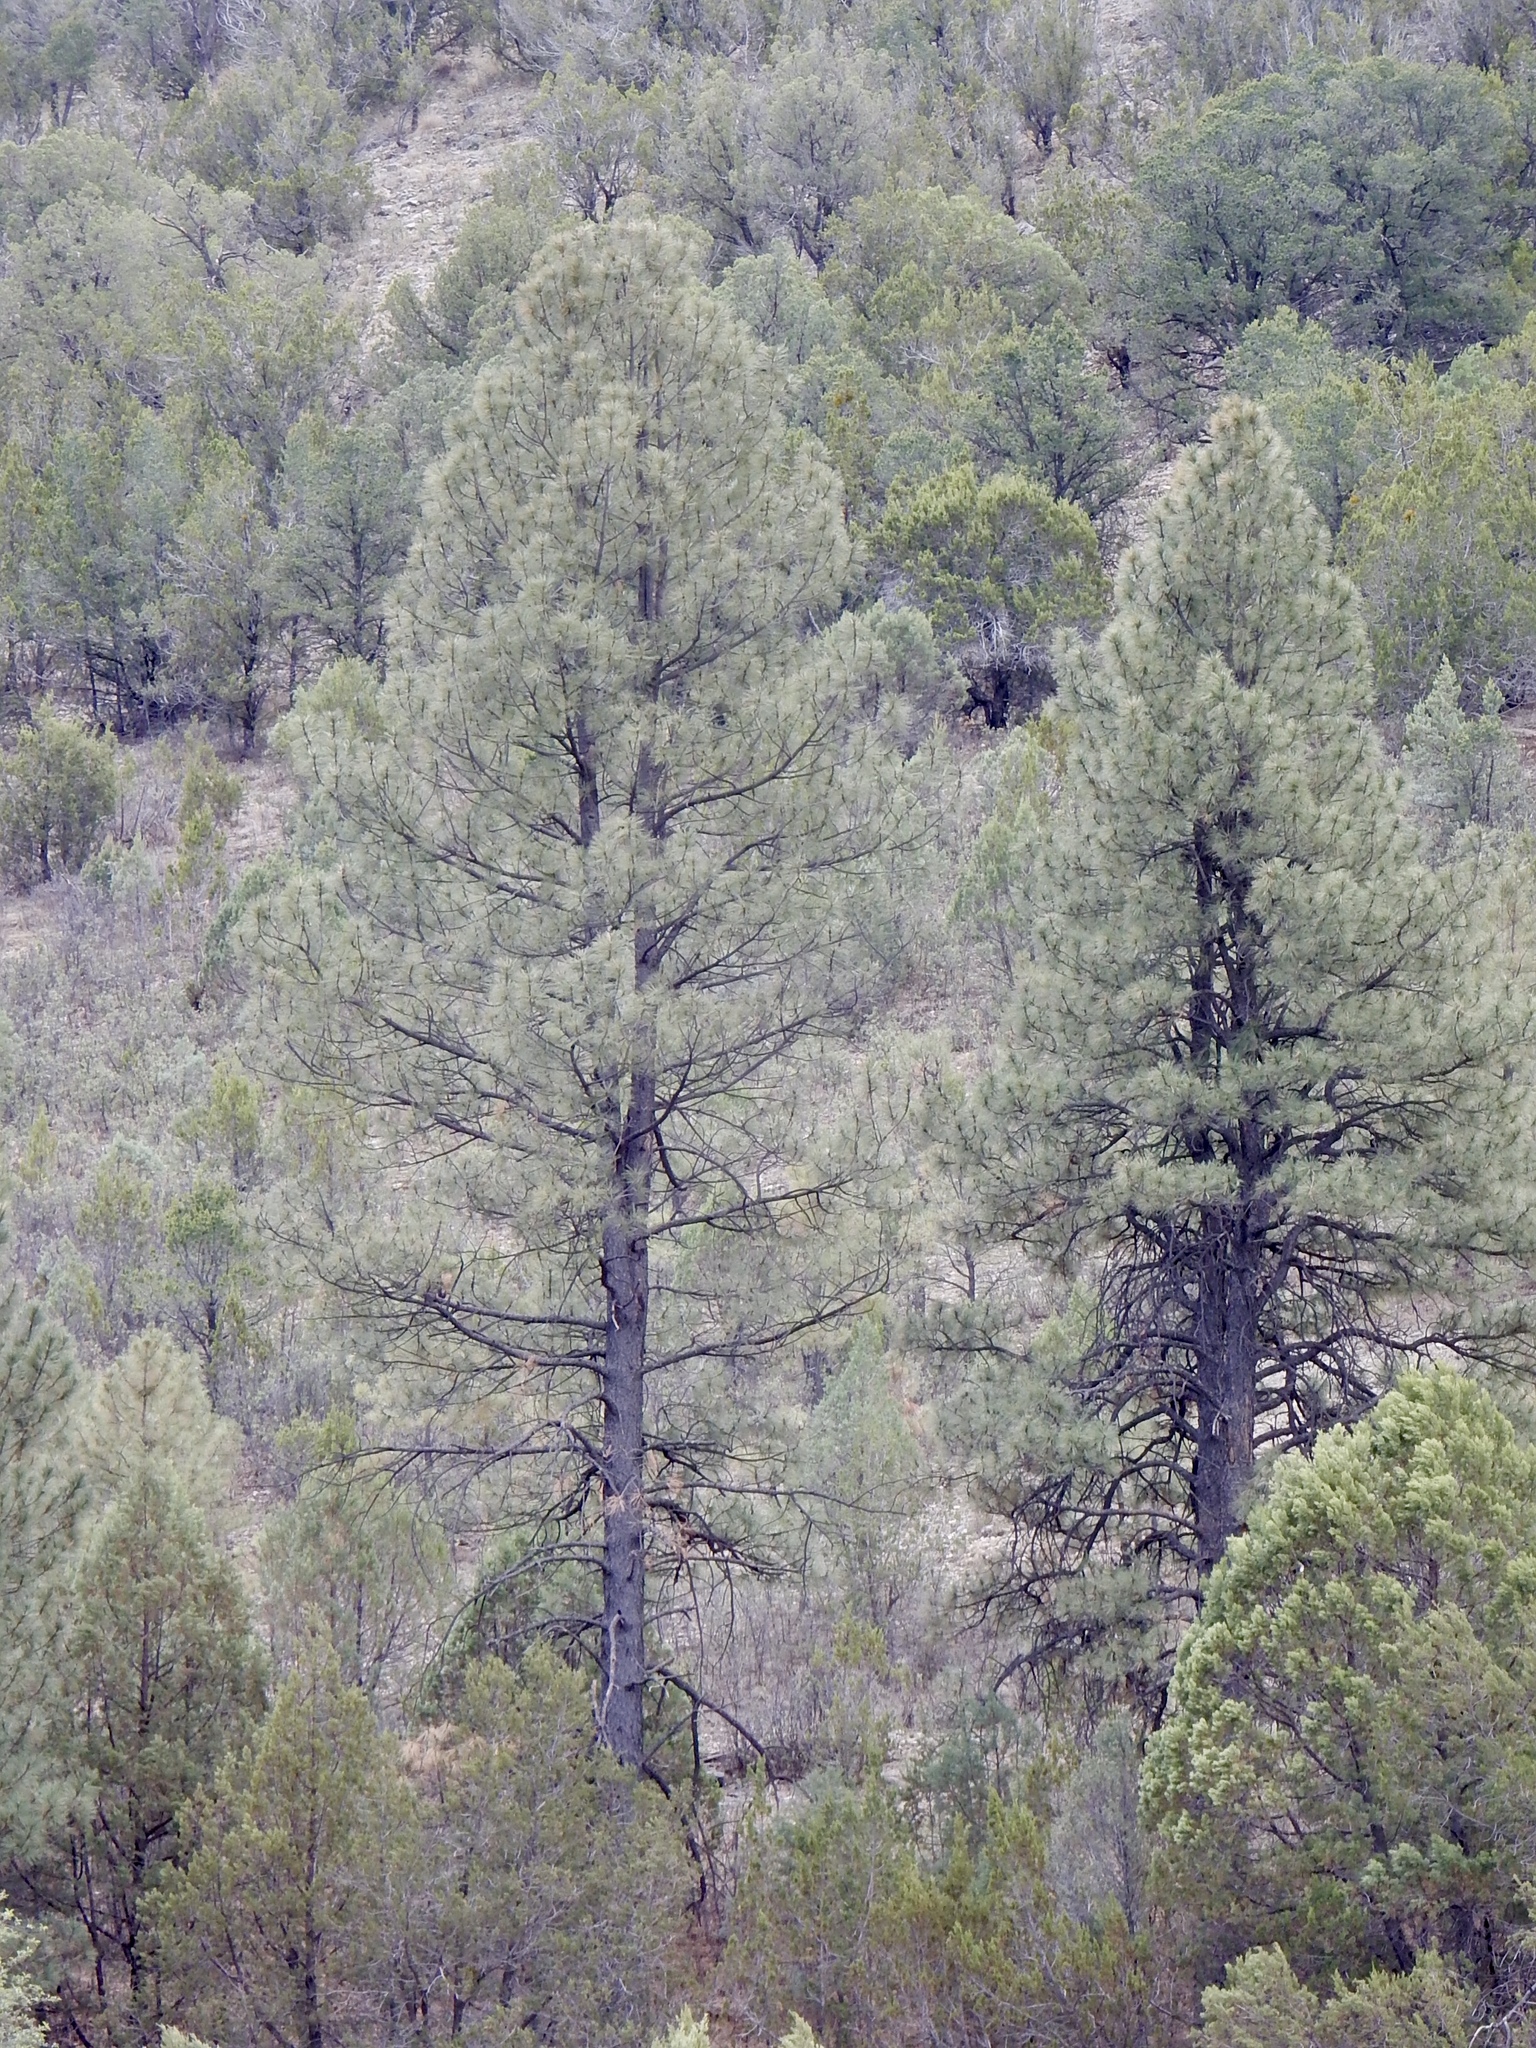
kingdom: Plantae
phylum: Tracheophyta
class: Pinopsida
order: Pinales
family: Pinaceae
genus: Pinus
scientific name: Pinus ponderosa
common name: Western yellow-pine
